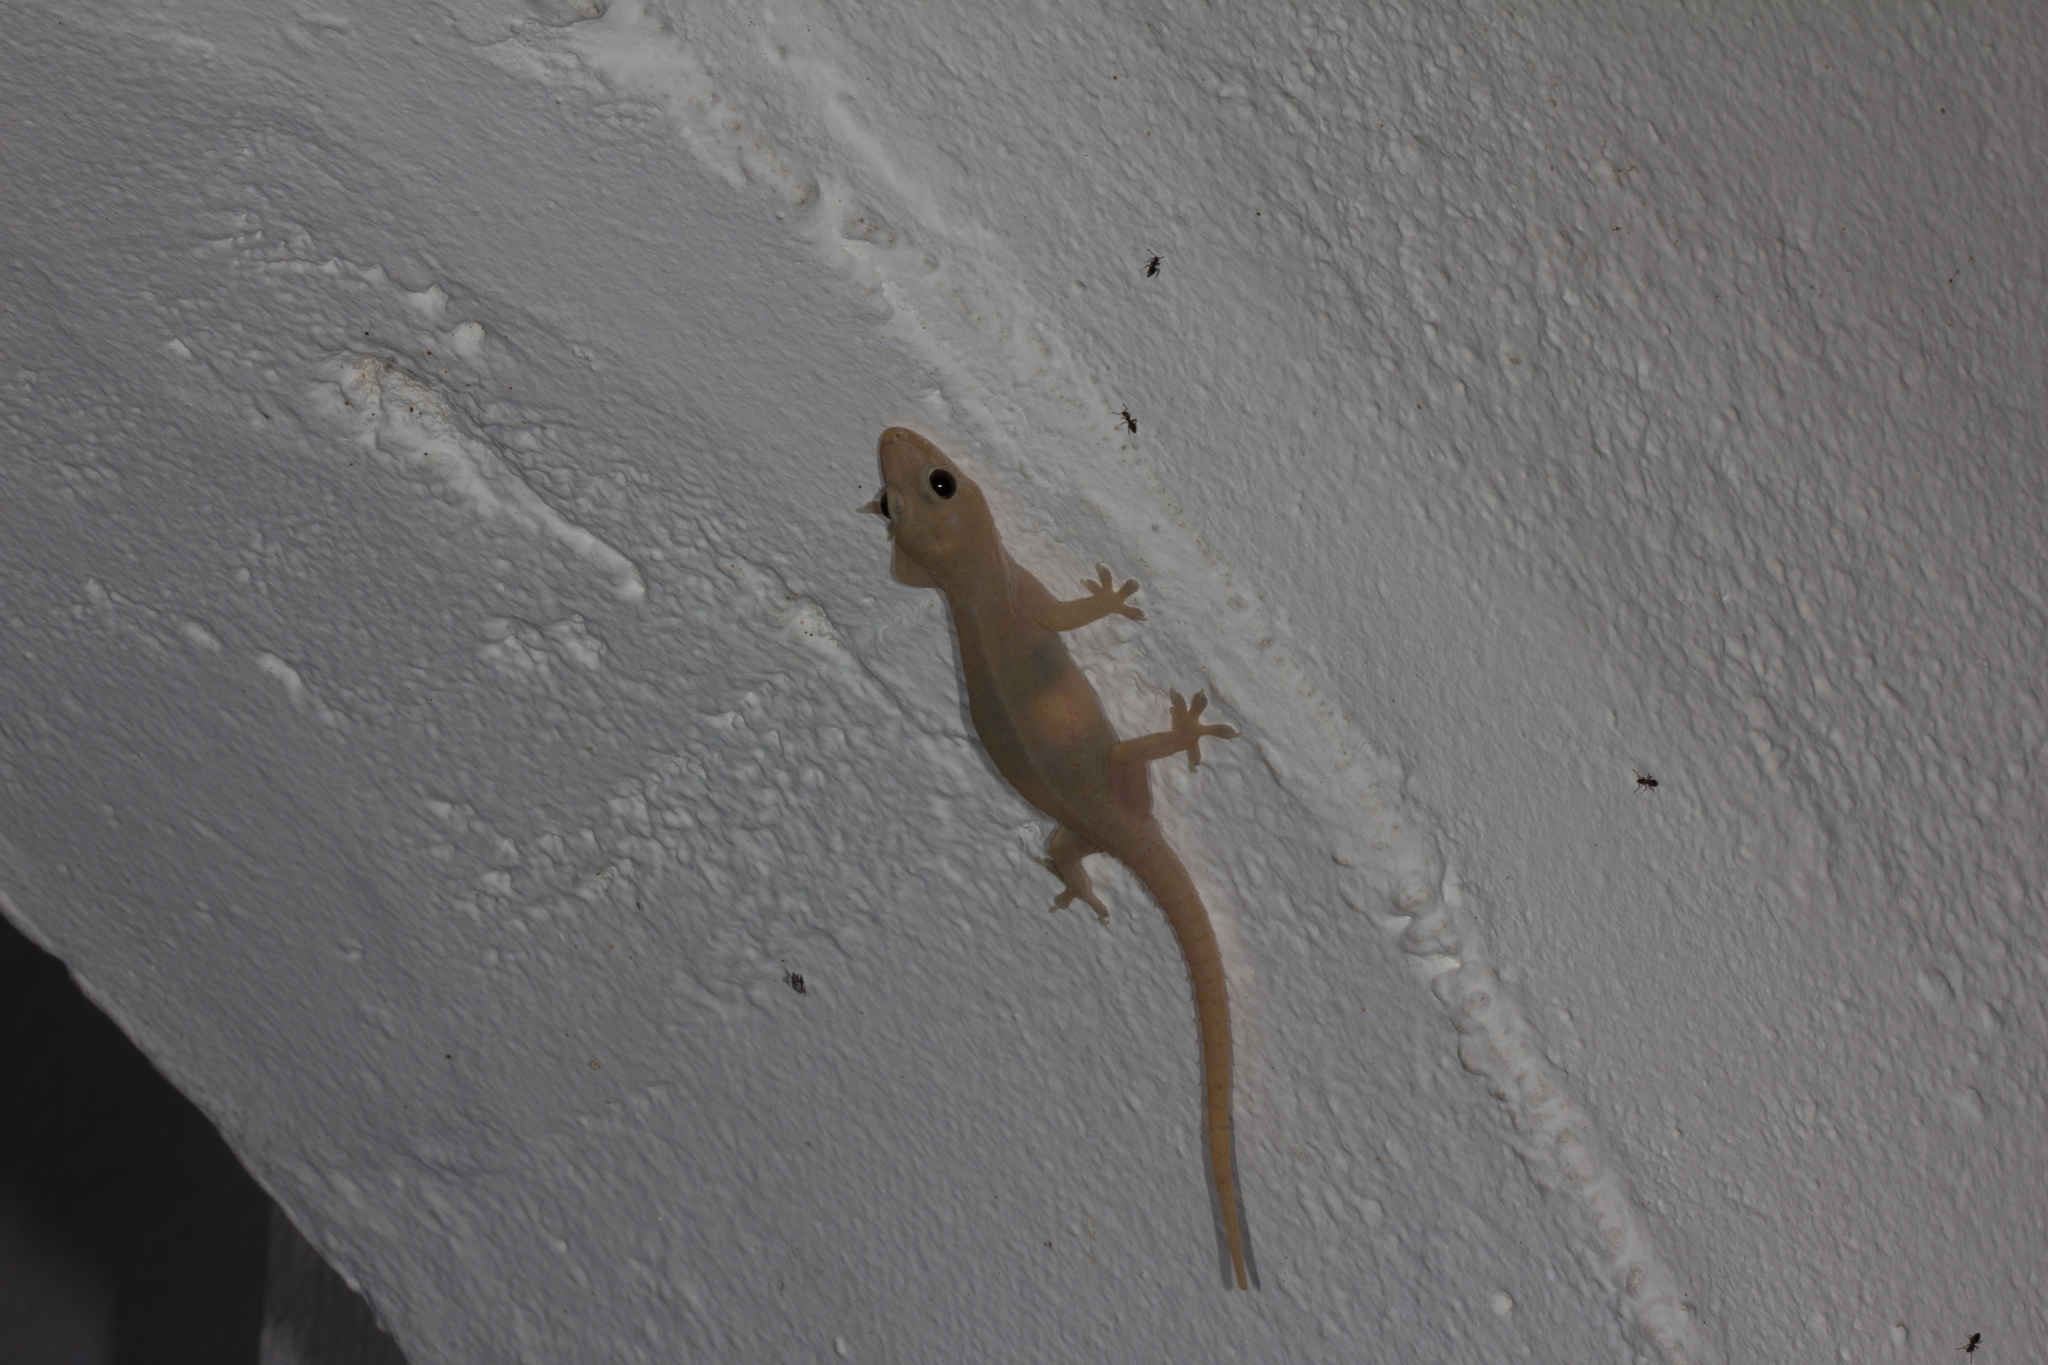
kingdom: Animalia
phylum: Chordata
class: Squamata
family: Gekkonidae
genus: Hemidactylus
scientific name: Hemidactylus frenatus
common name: Common house gecko
